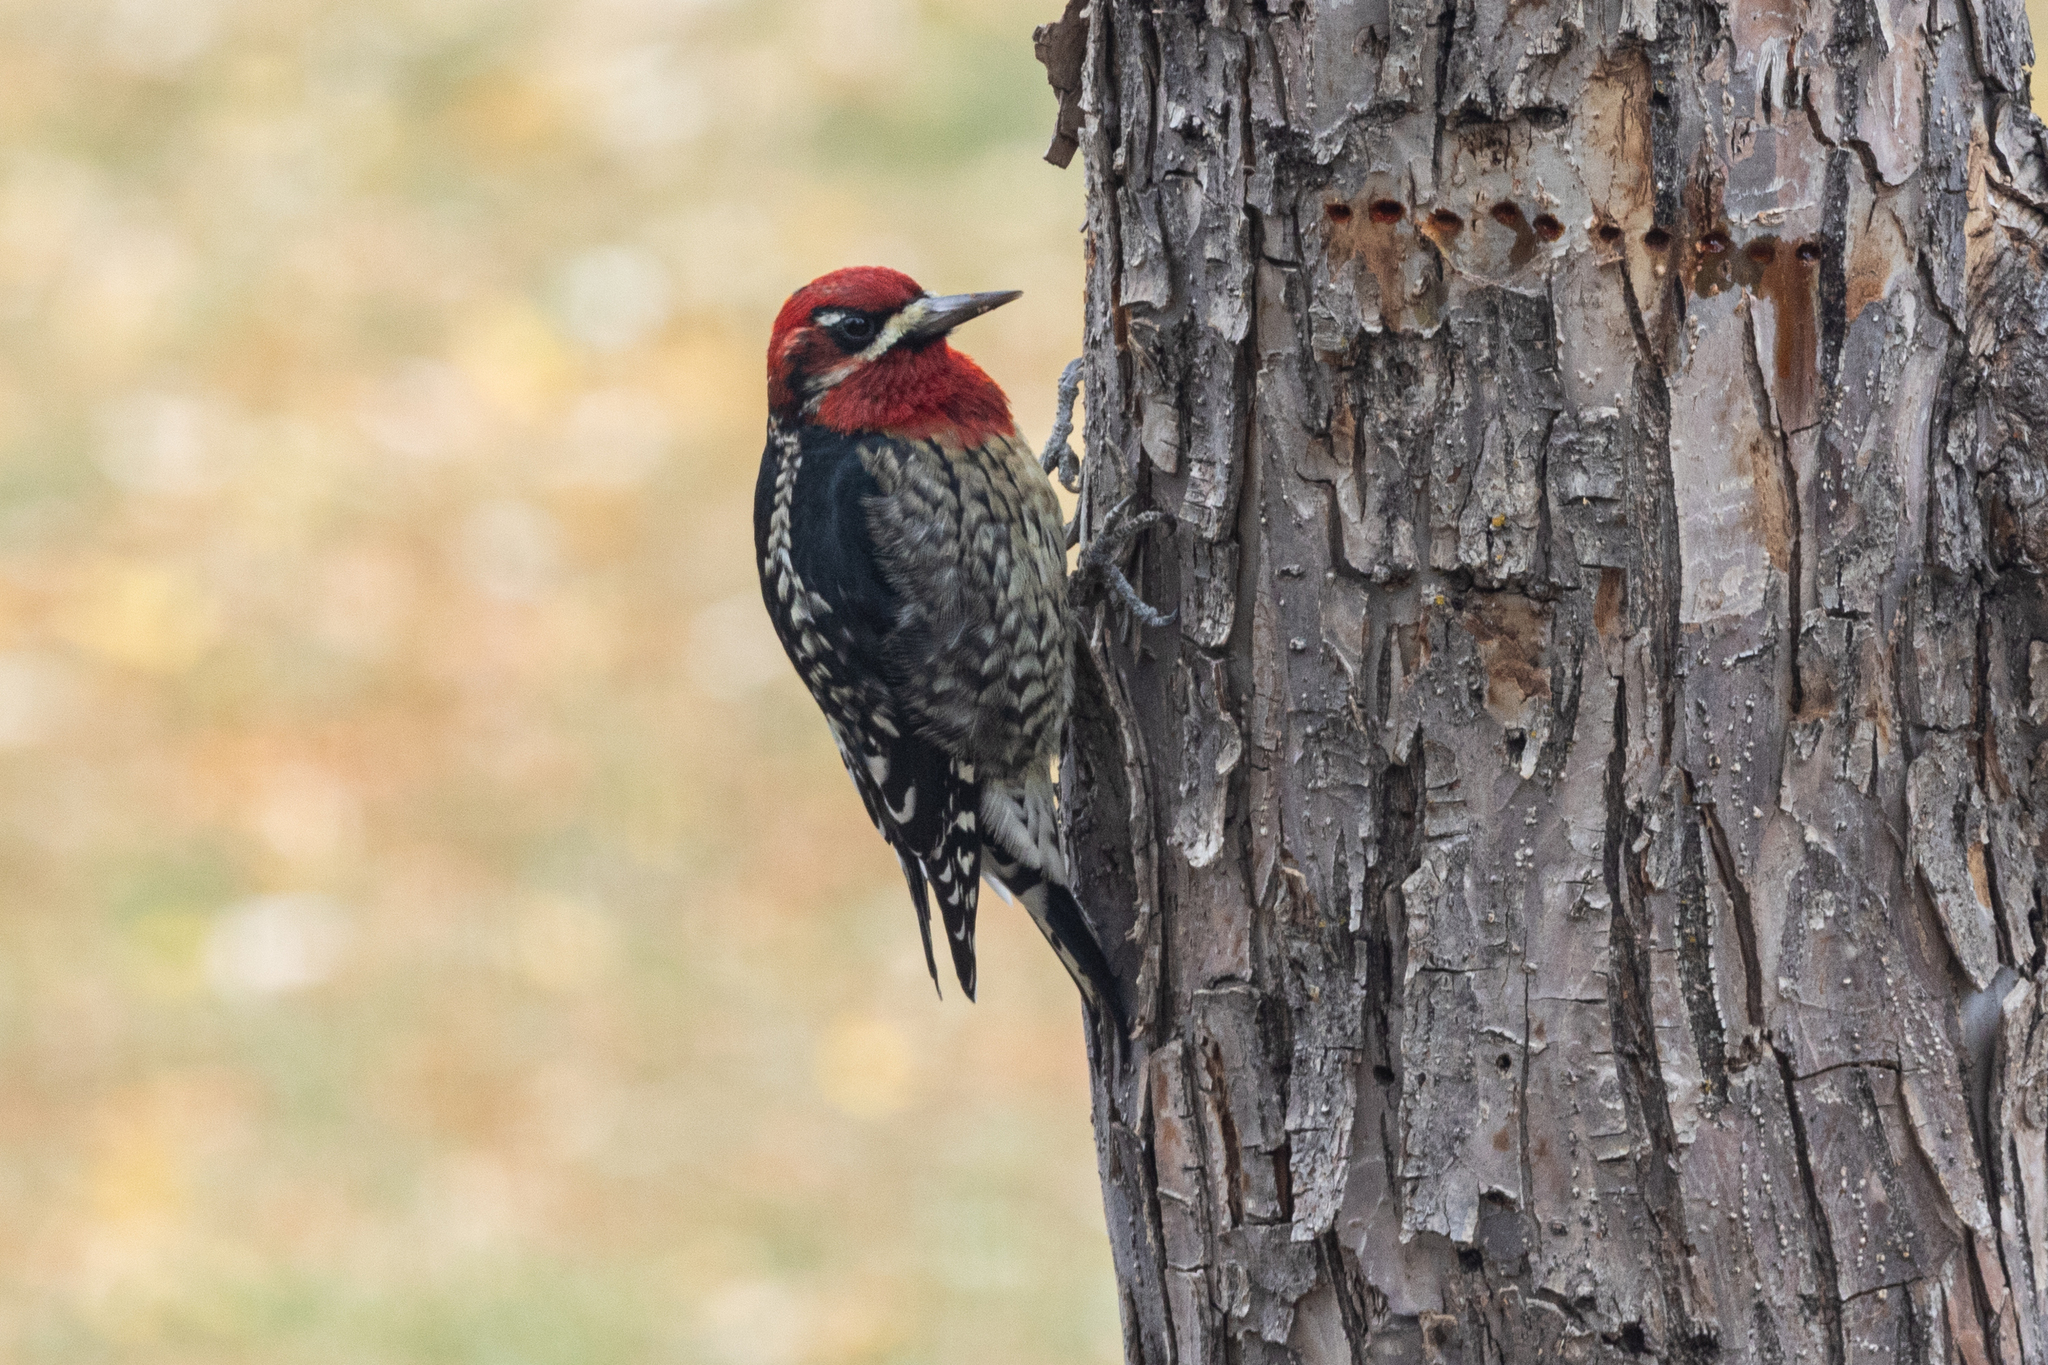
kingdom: Animalia
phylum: Chordata
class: Aves
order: Piciformes
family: Picidae
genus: Sphyrapicus
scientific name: Sphyrapicus
